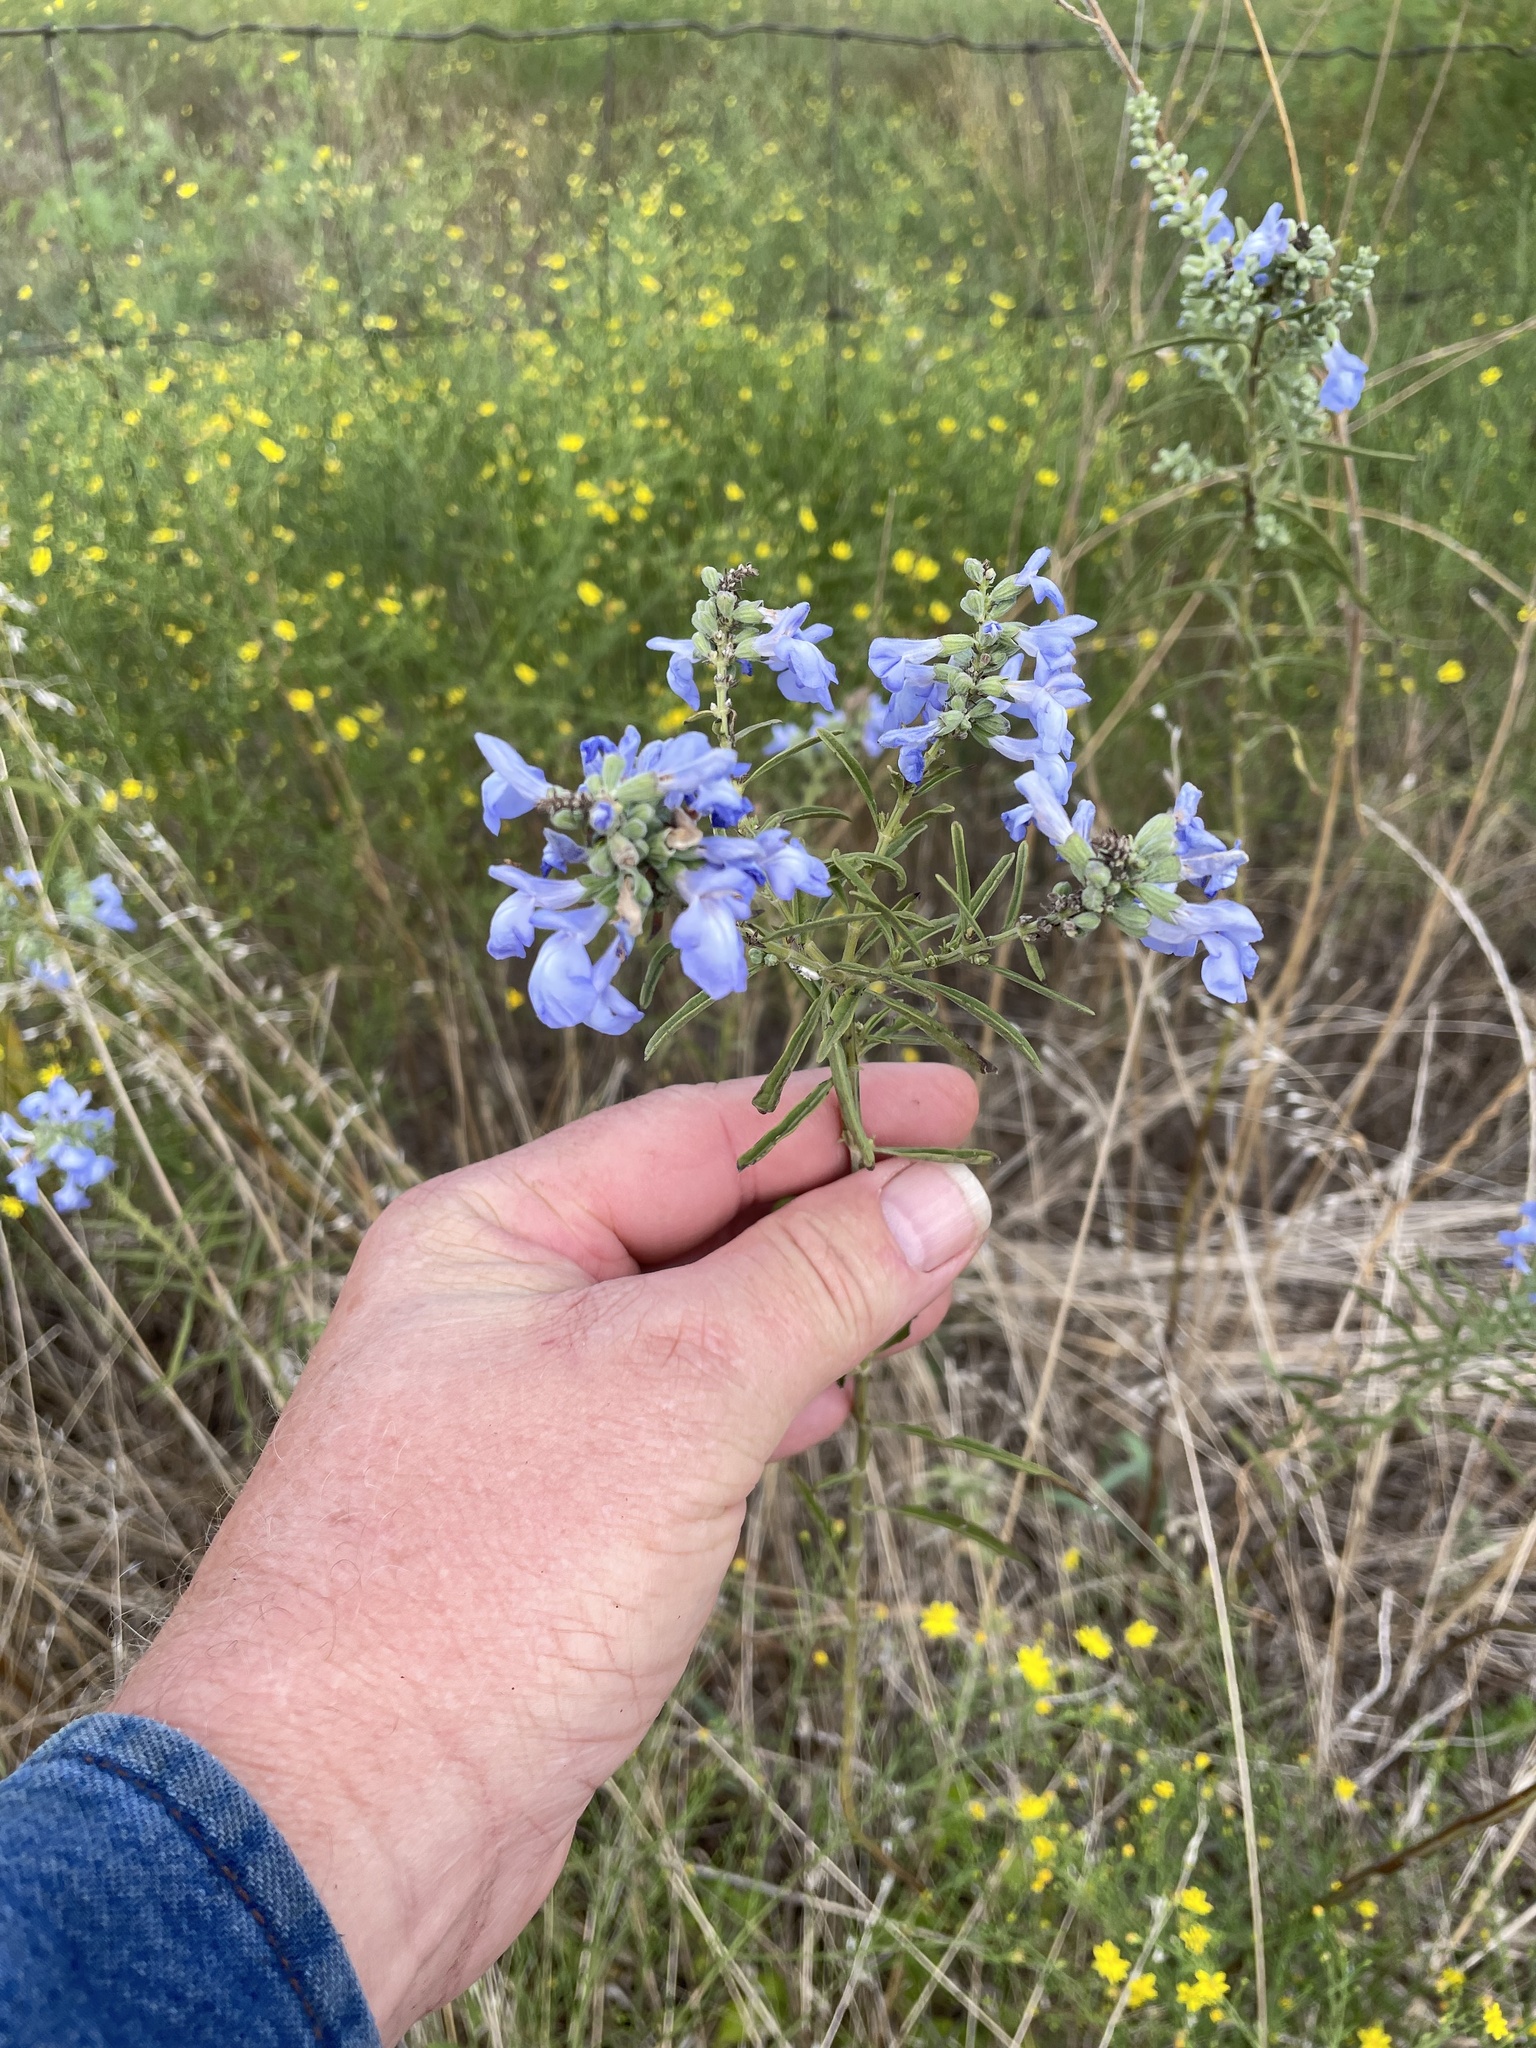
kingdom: Plantae
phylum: Tracheophyta
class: Magnoliopsida
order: Lamiales
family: Lamiaceae
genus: Salvia
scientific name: Salvia azurea
